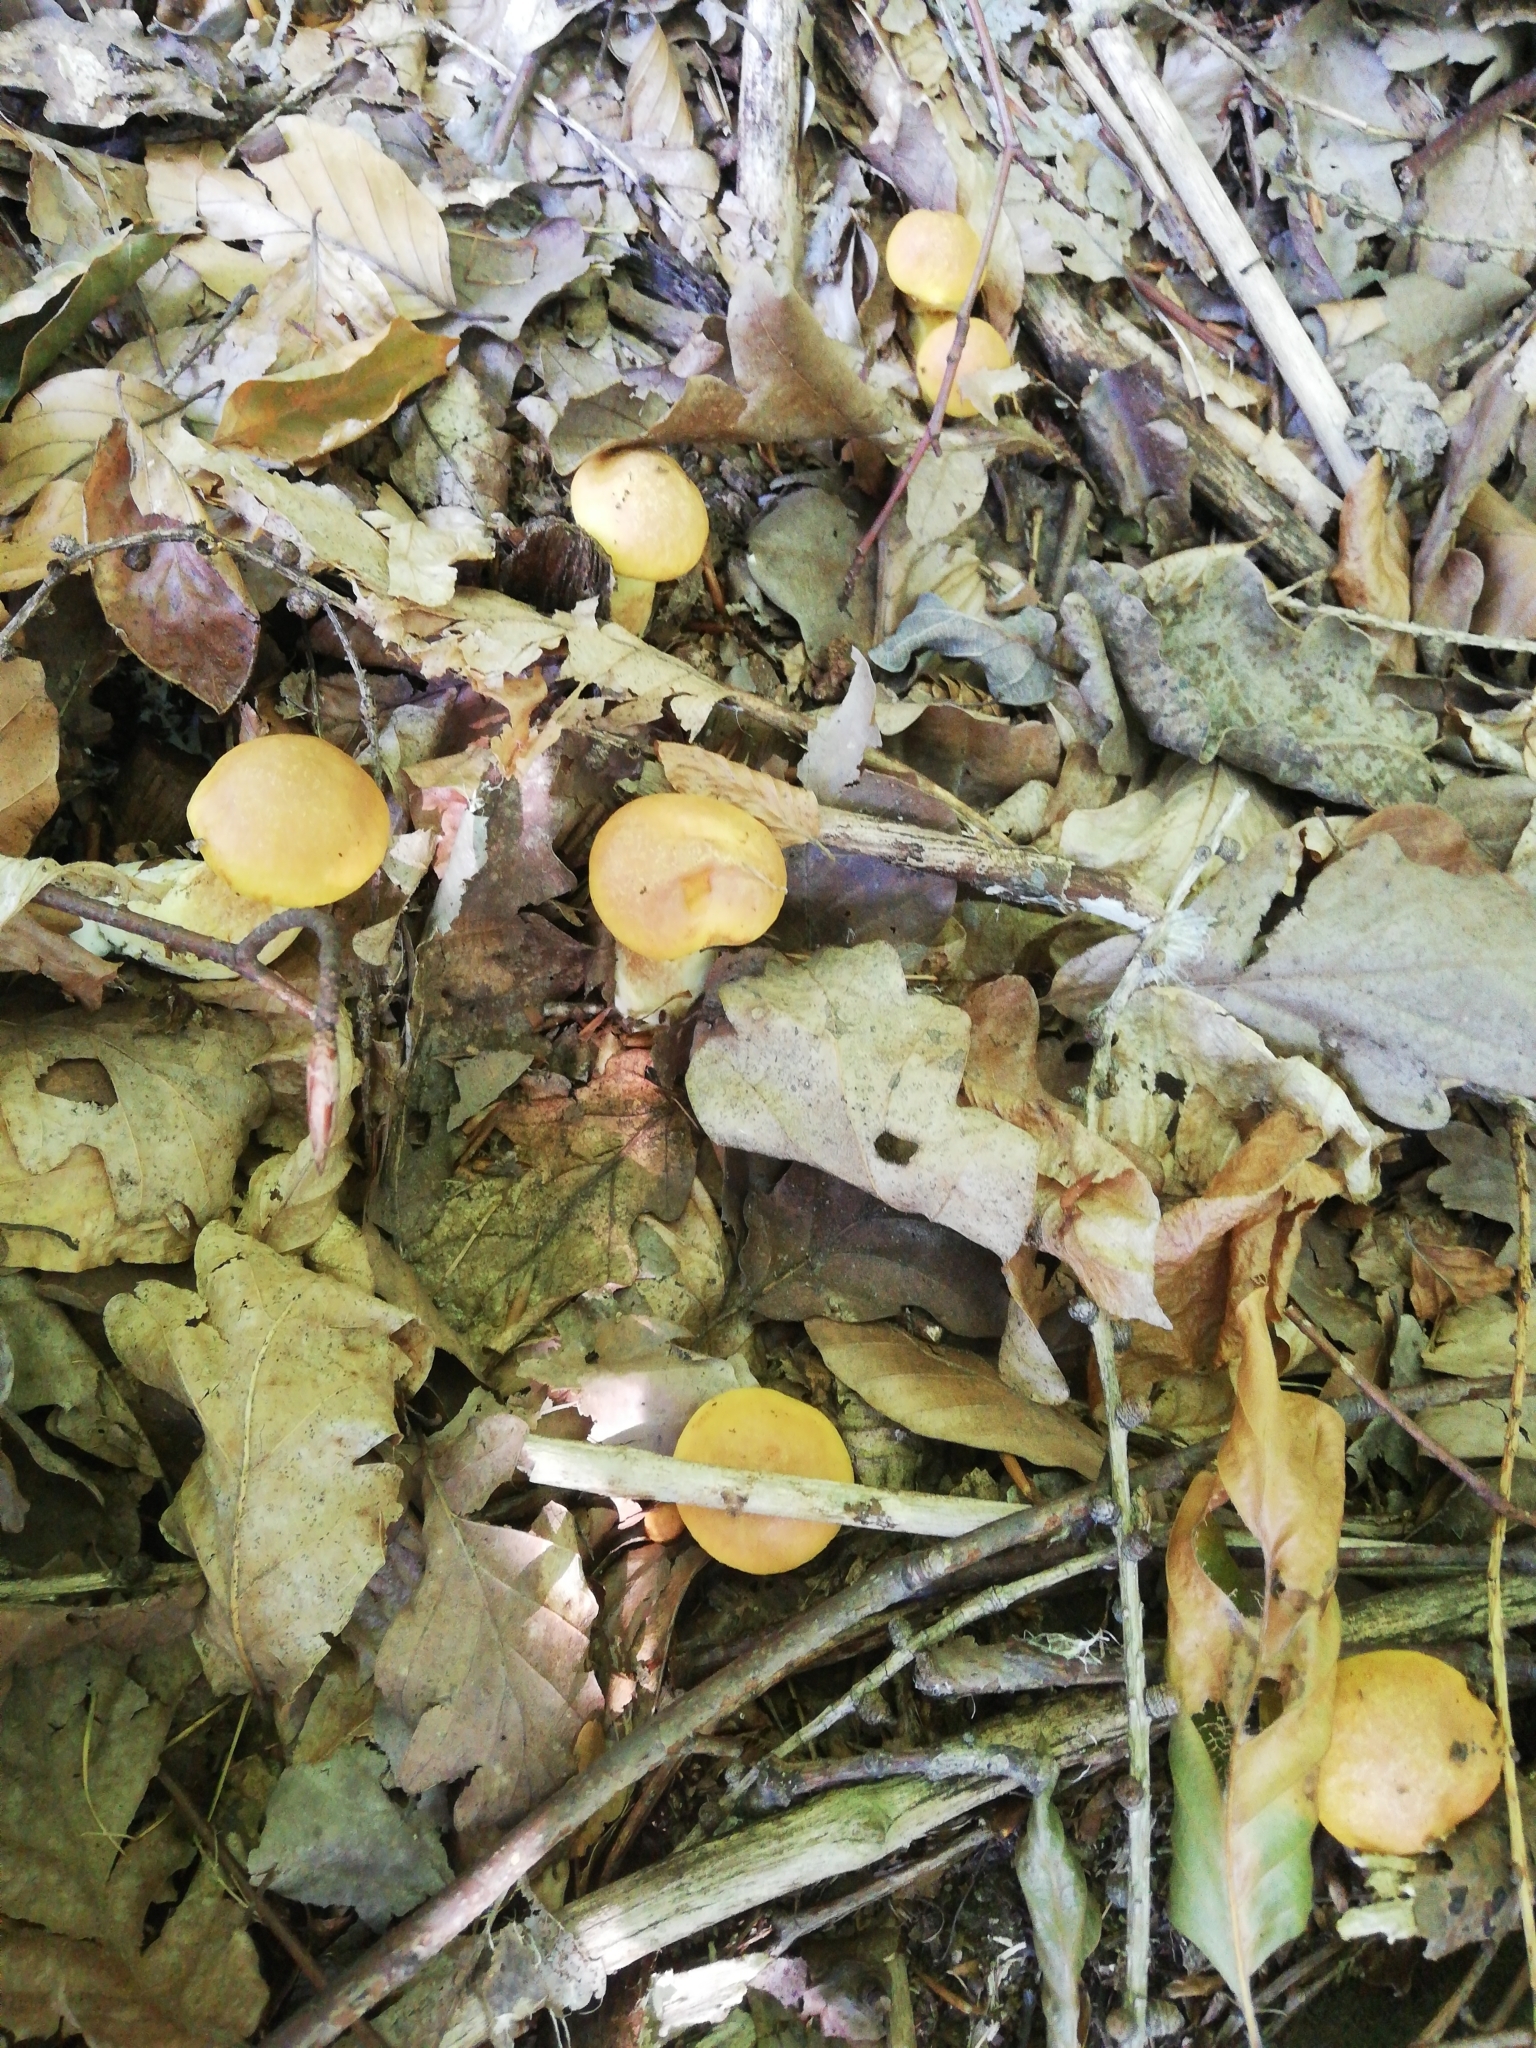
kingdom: Fungi
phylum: Basidiomycota
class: Agaricomycetes
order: Boletales
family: Suillaceae
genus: Suillus
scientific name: Suillus grevillei
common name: Larch bolete
